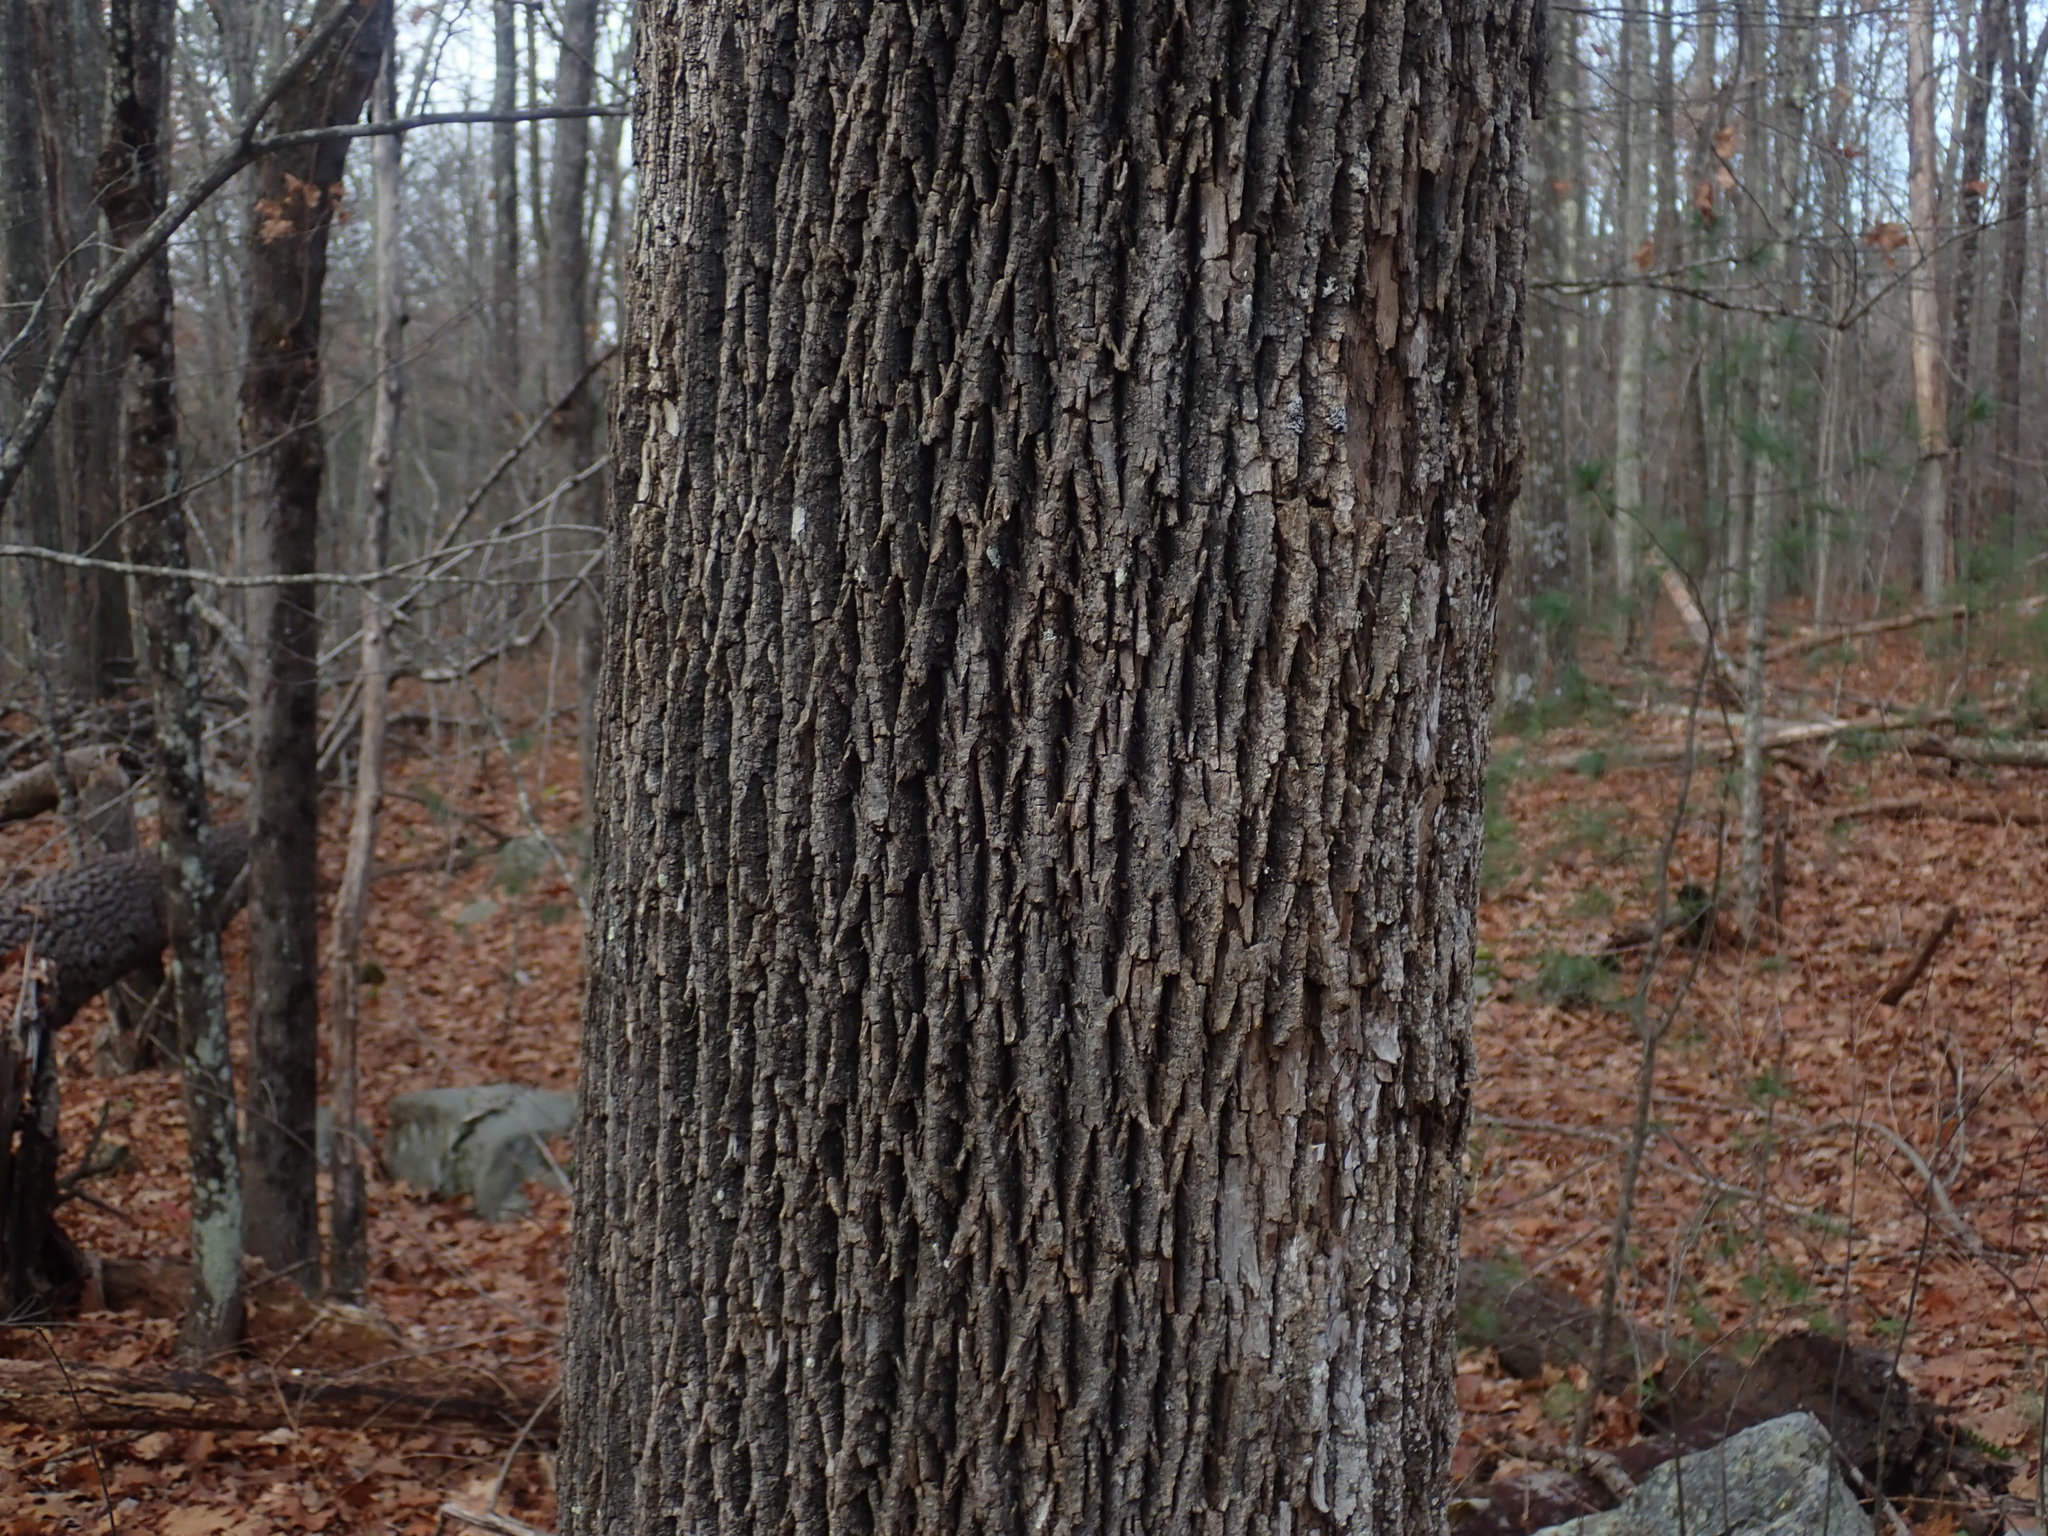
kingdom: Plantae
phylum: Tracheophyta
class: Magnoliopsida
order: Lamiales
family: Oleaceae
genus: Fraxinus
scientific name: Fraxinus americana
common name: White ash
